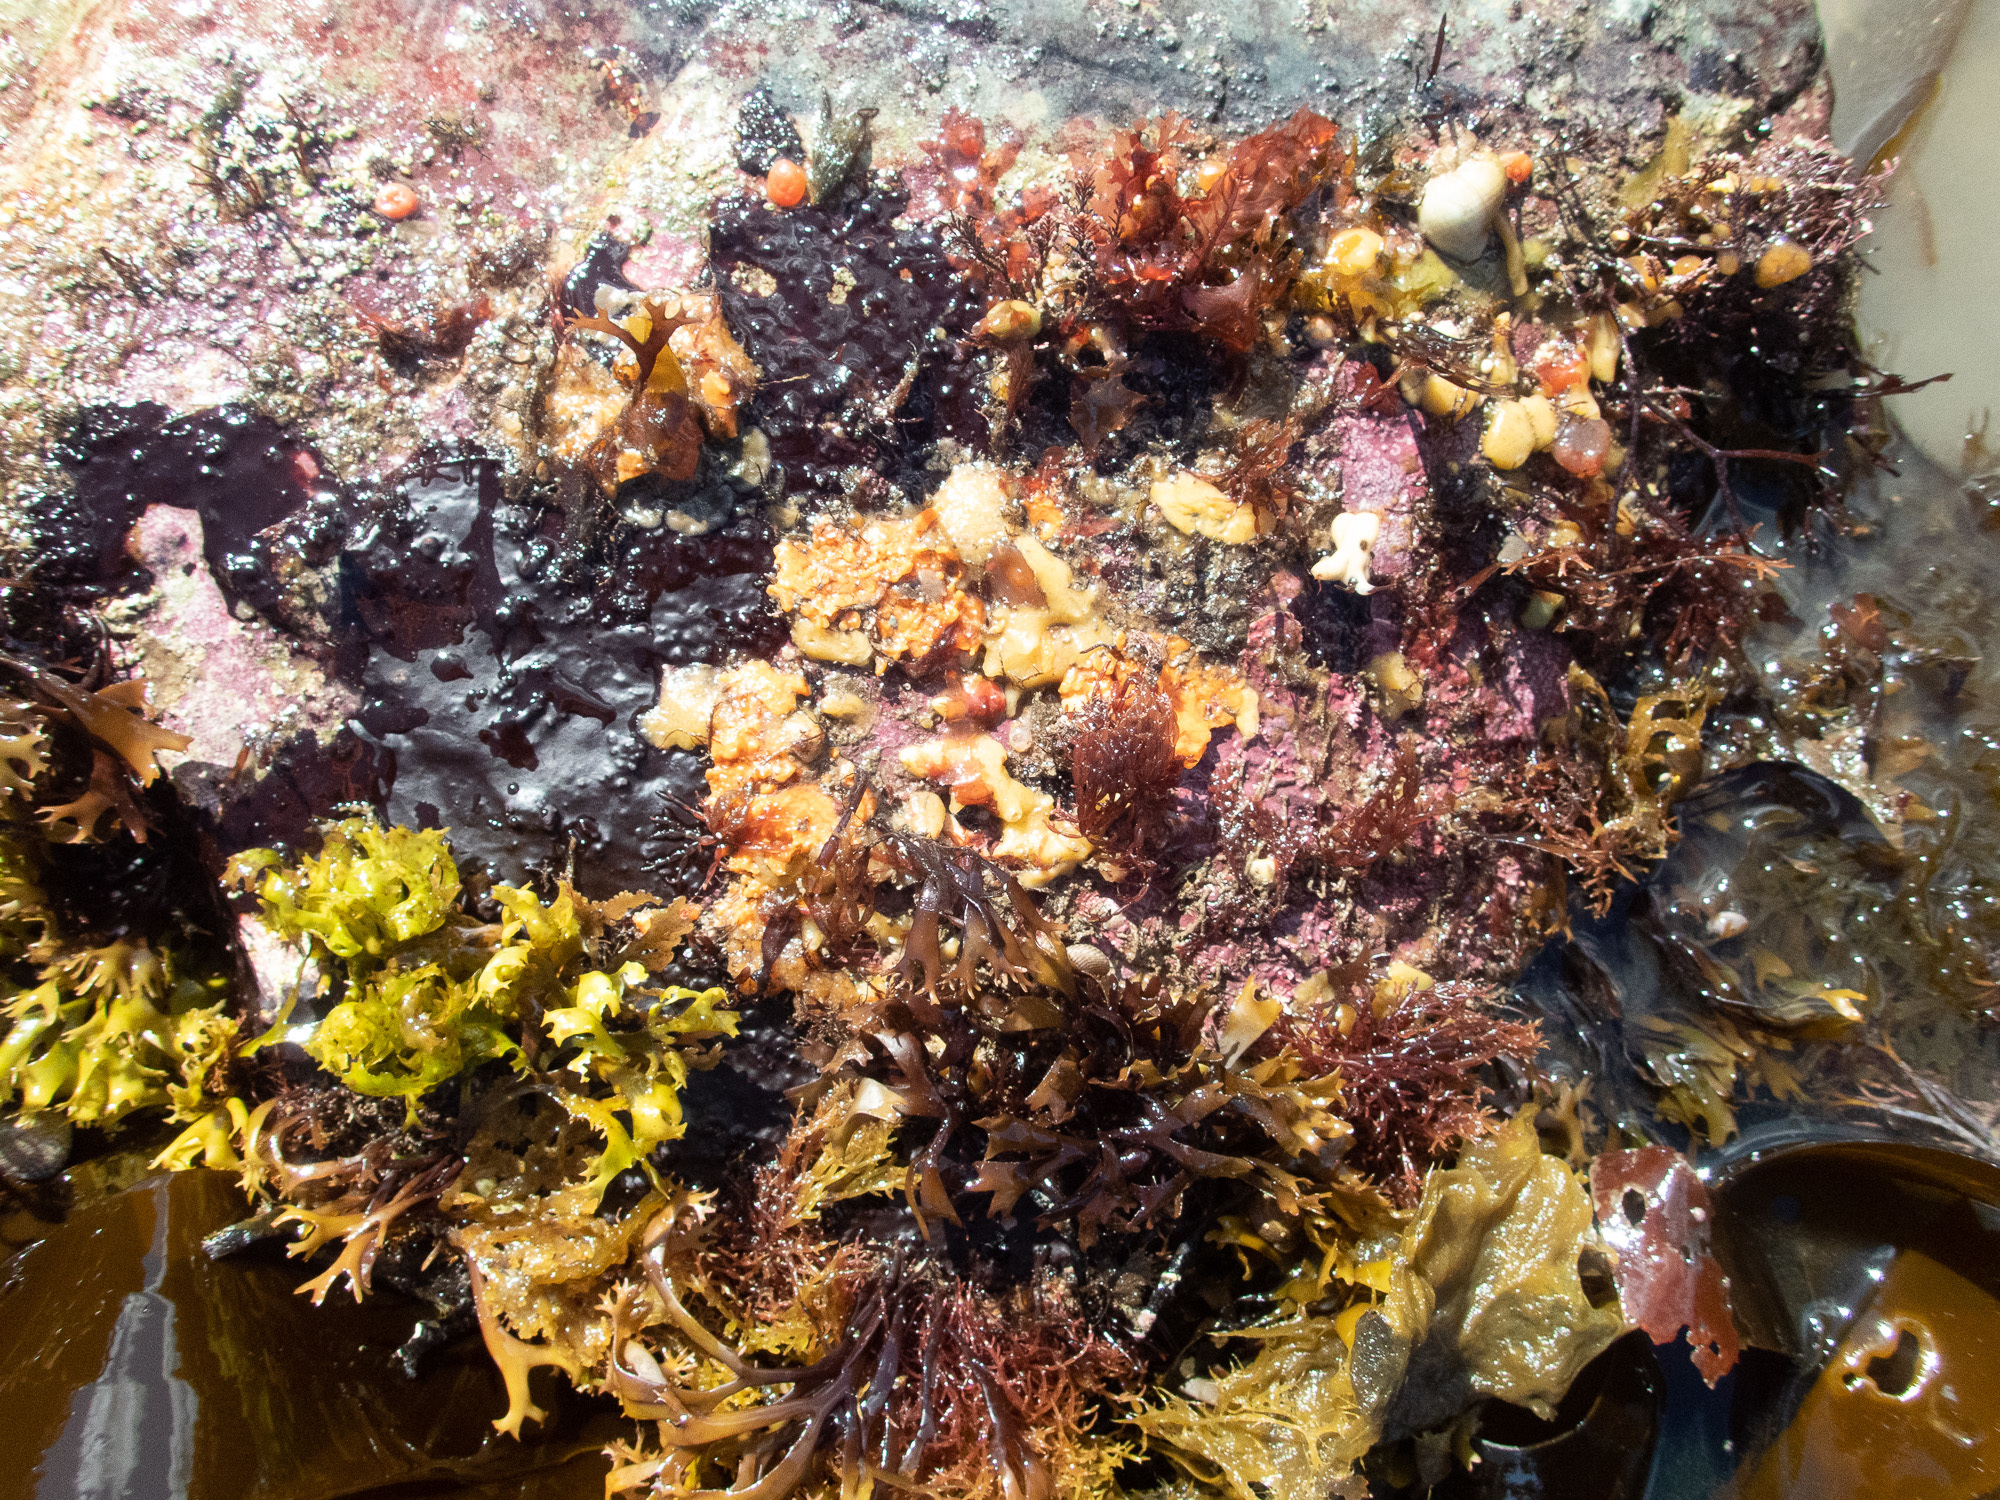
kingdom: Plantae
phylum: Rhodophyta
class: Florideophyceae
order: Gigartinales
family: Phyllophoraceae
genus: Mastocarpus
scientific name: Mastocarpus stellatus
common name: False irish moss
